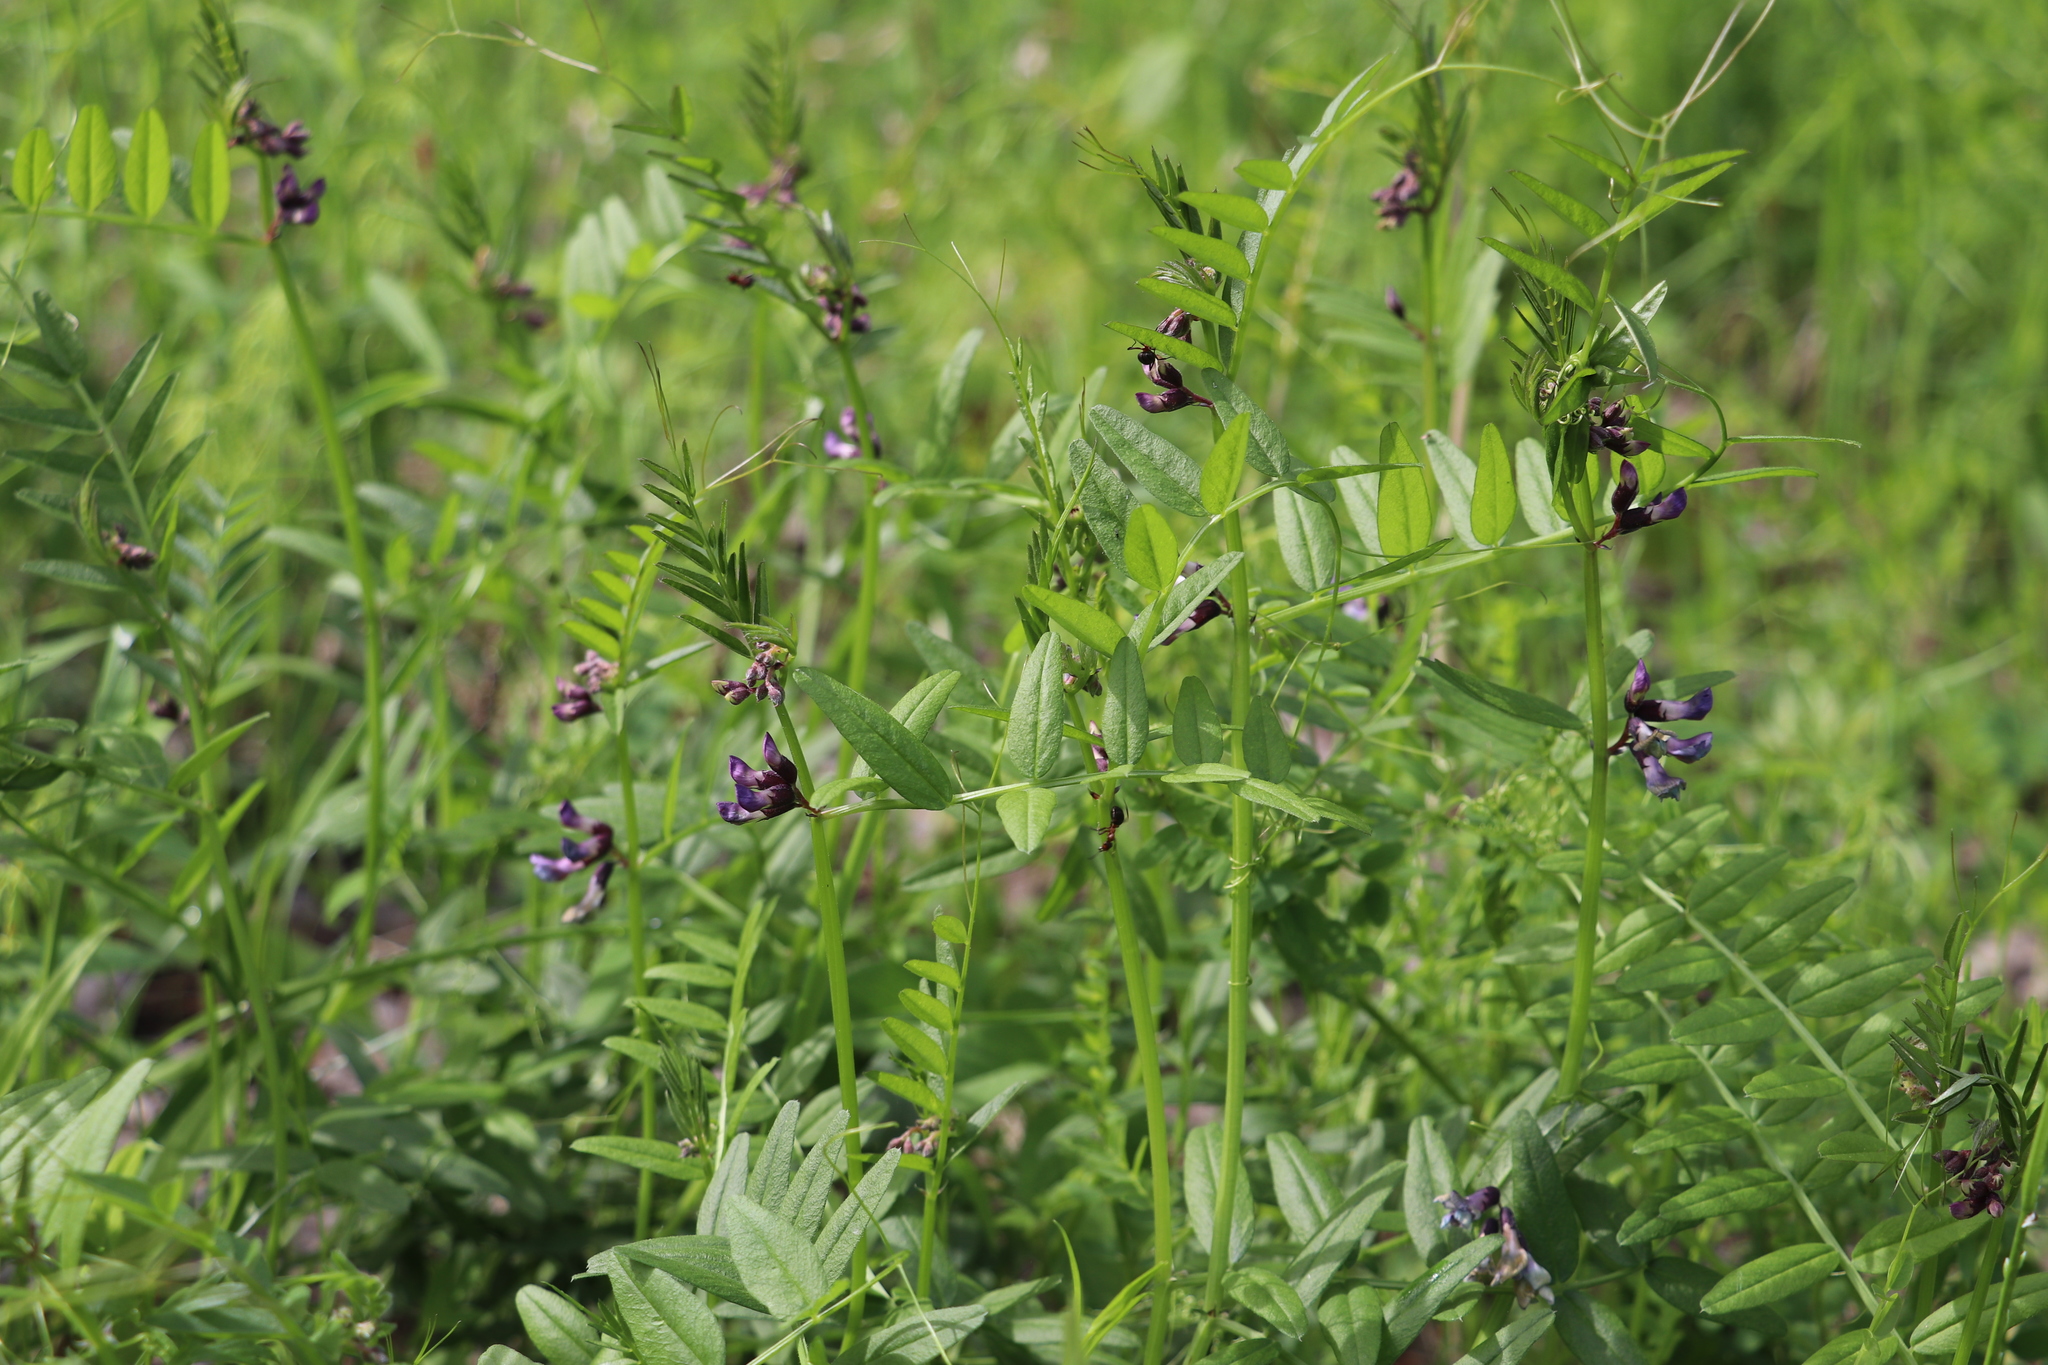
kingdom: Plantae
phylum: Tracheophyta
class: Magnoliopsida
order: Fabales
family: Fabaceae
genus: Vicia
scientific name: Vicia sepium
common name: Bush vetch
